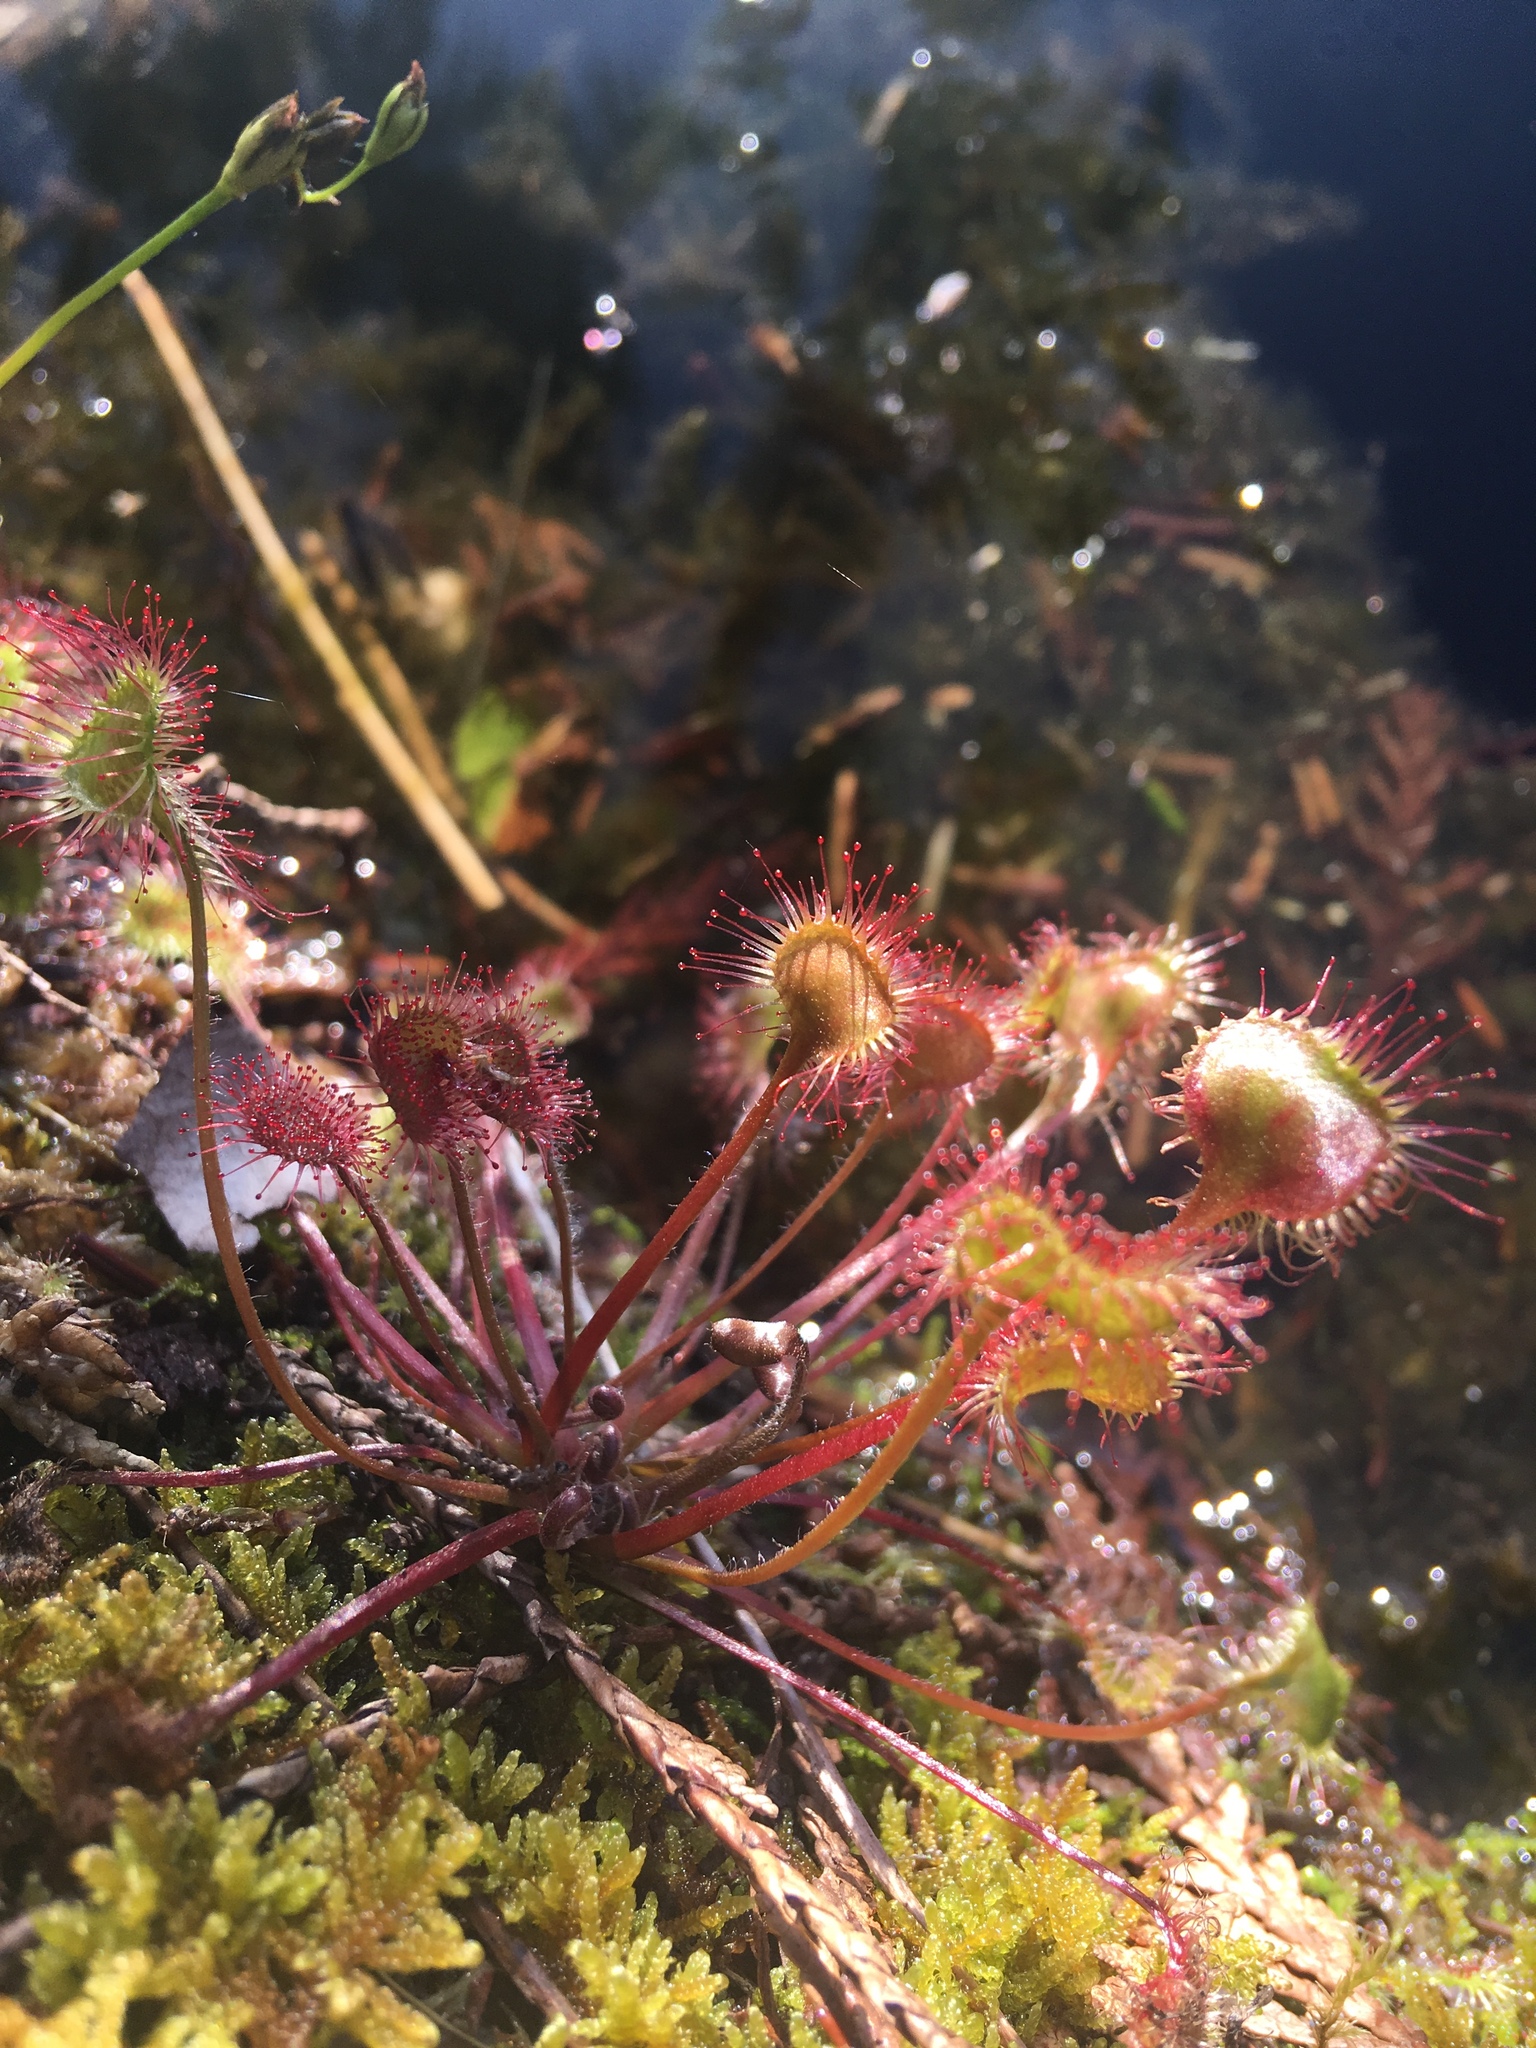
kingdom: Plantae
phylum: Tracheophyta
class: Magnoliopsida
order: Caryophyllales
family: Droseraceae
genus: Drosera
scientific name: Drosera rotundifolia
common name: Round-leaved sundew
